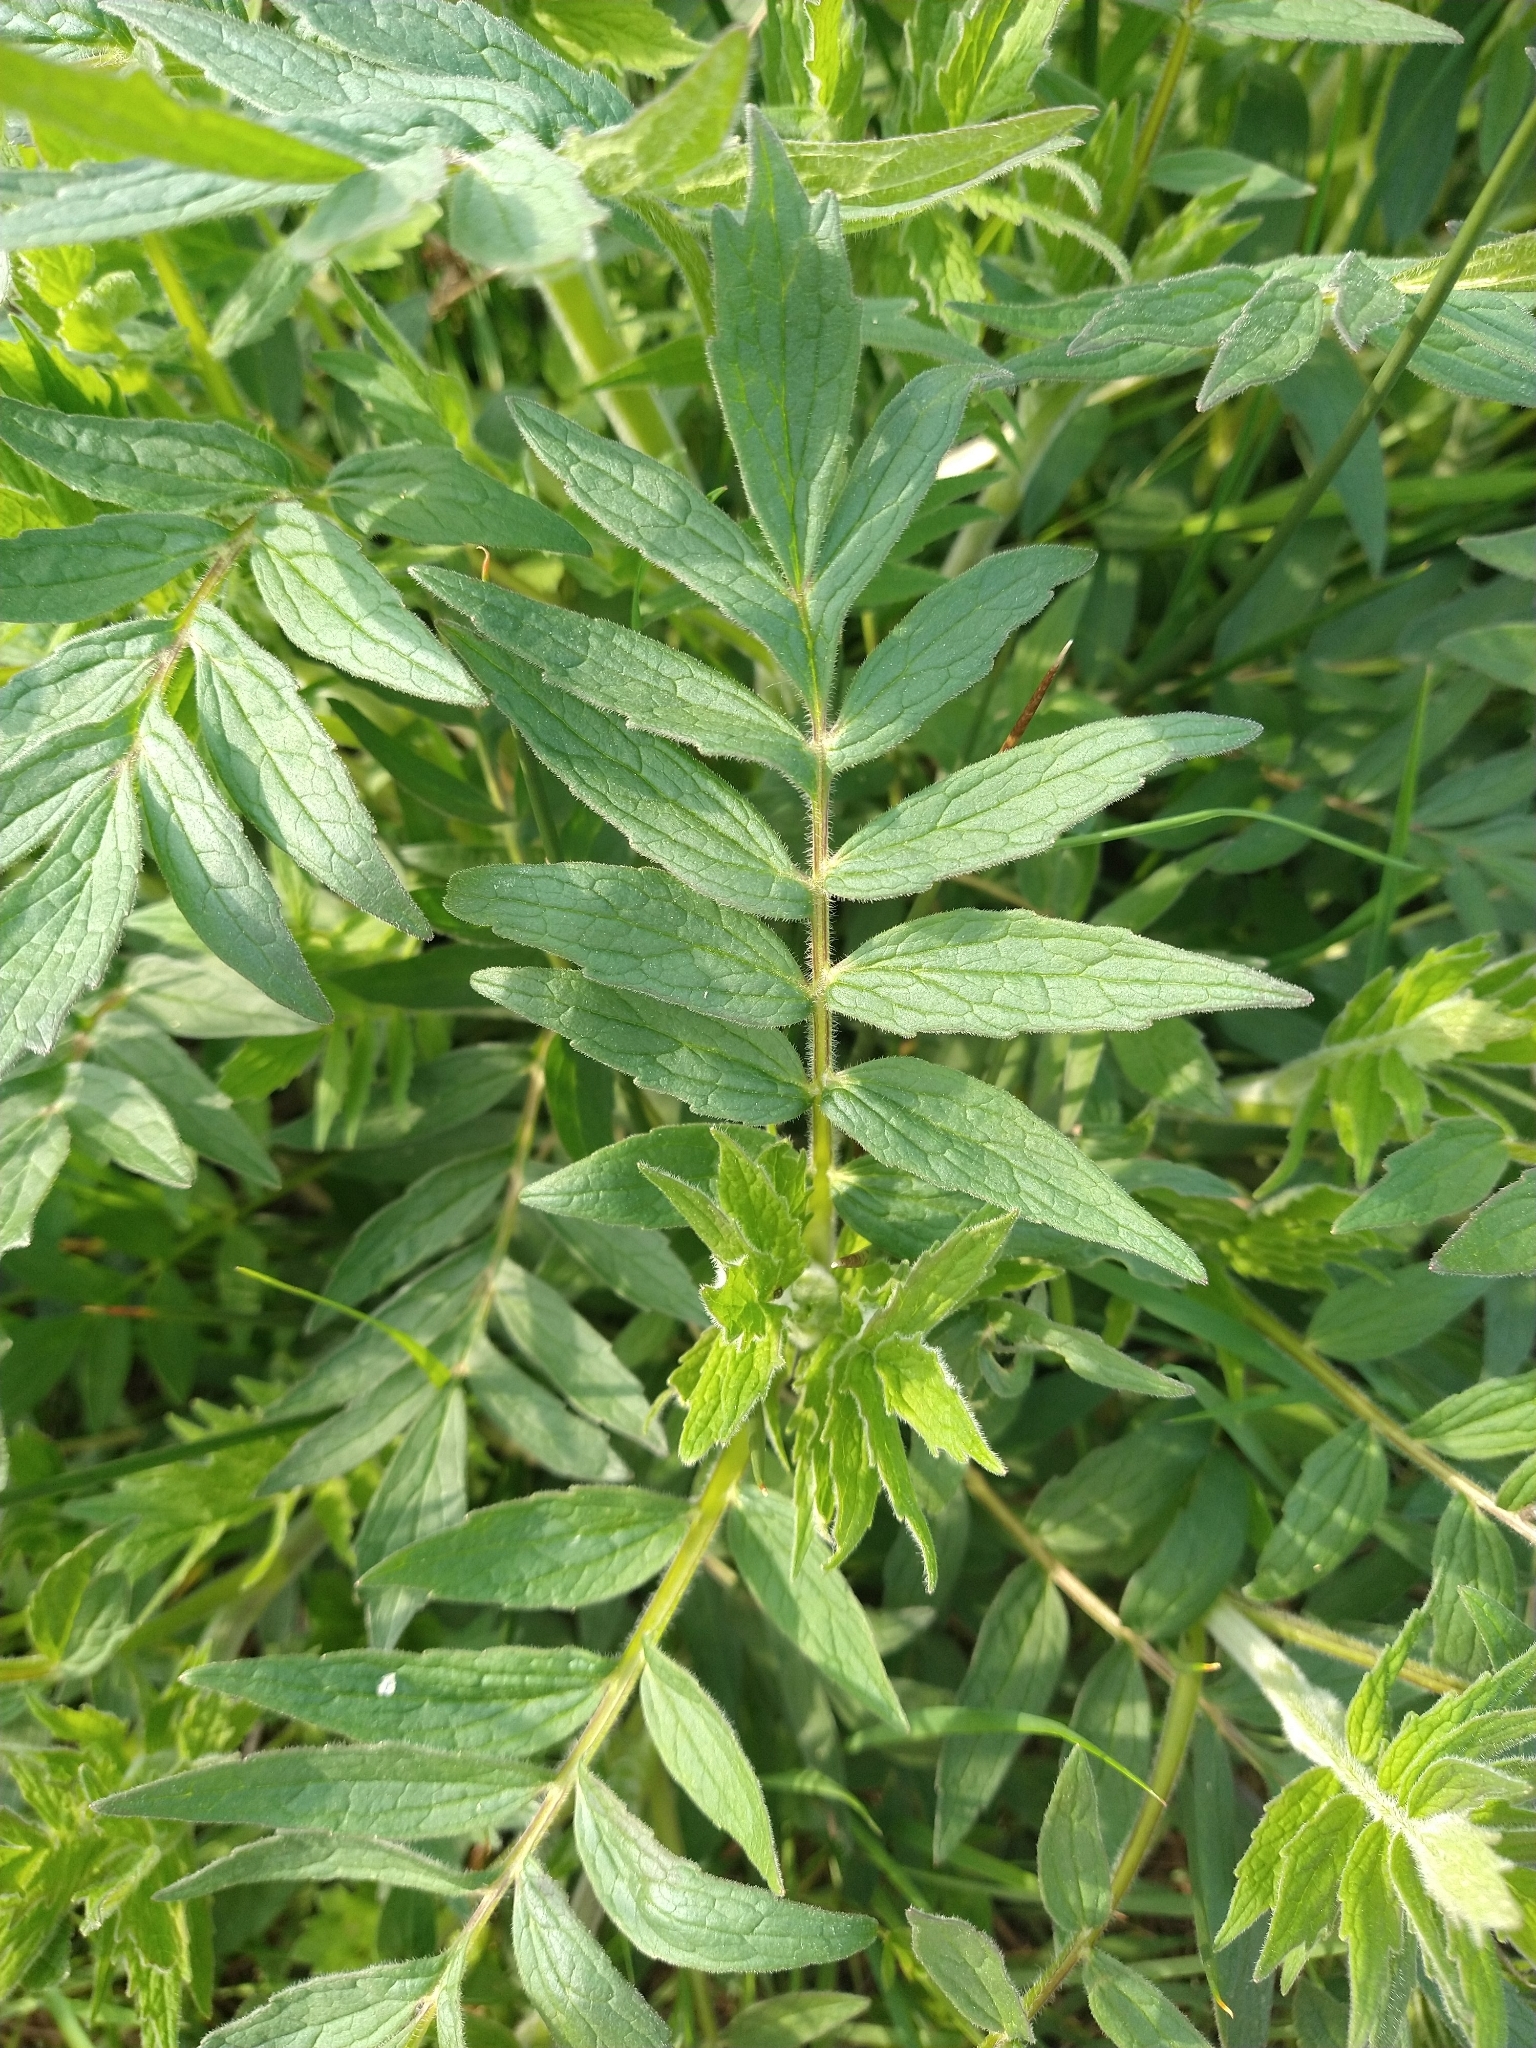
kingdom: Plantae
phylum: Tracheophyta
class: Magnoliopsida
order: Dipsacales
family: Caprifoliaceae
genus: Valeriana
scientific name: Valeriana officinalis
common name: Common valerian
